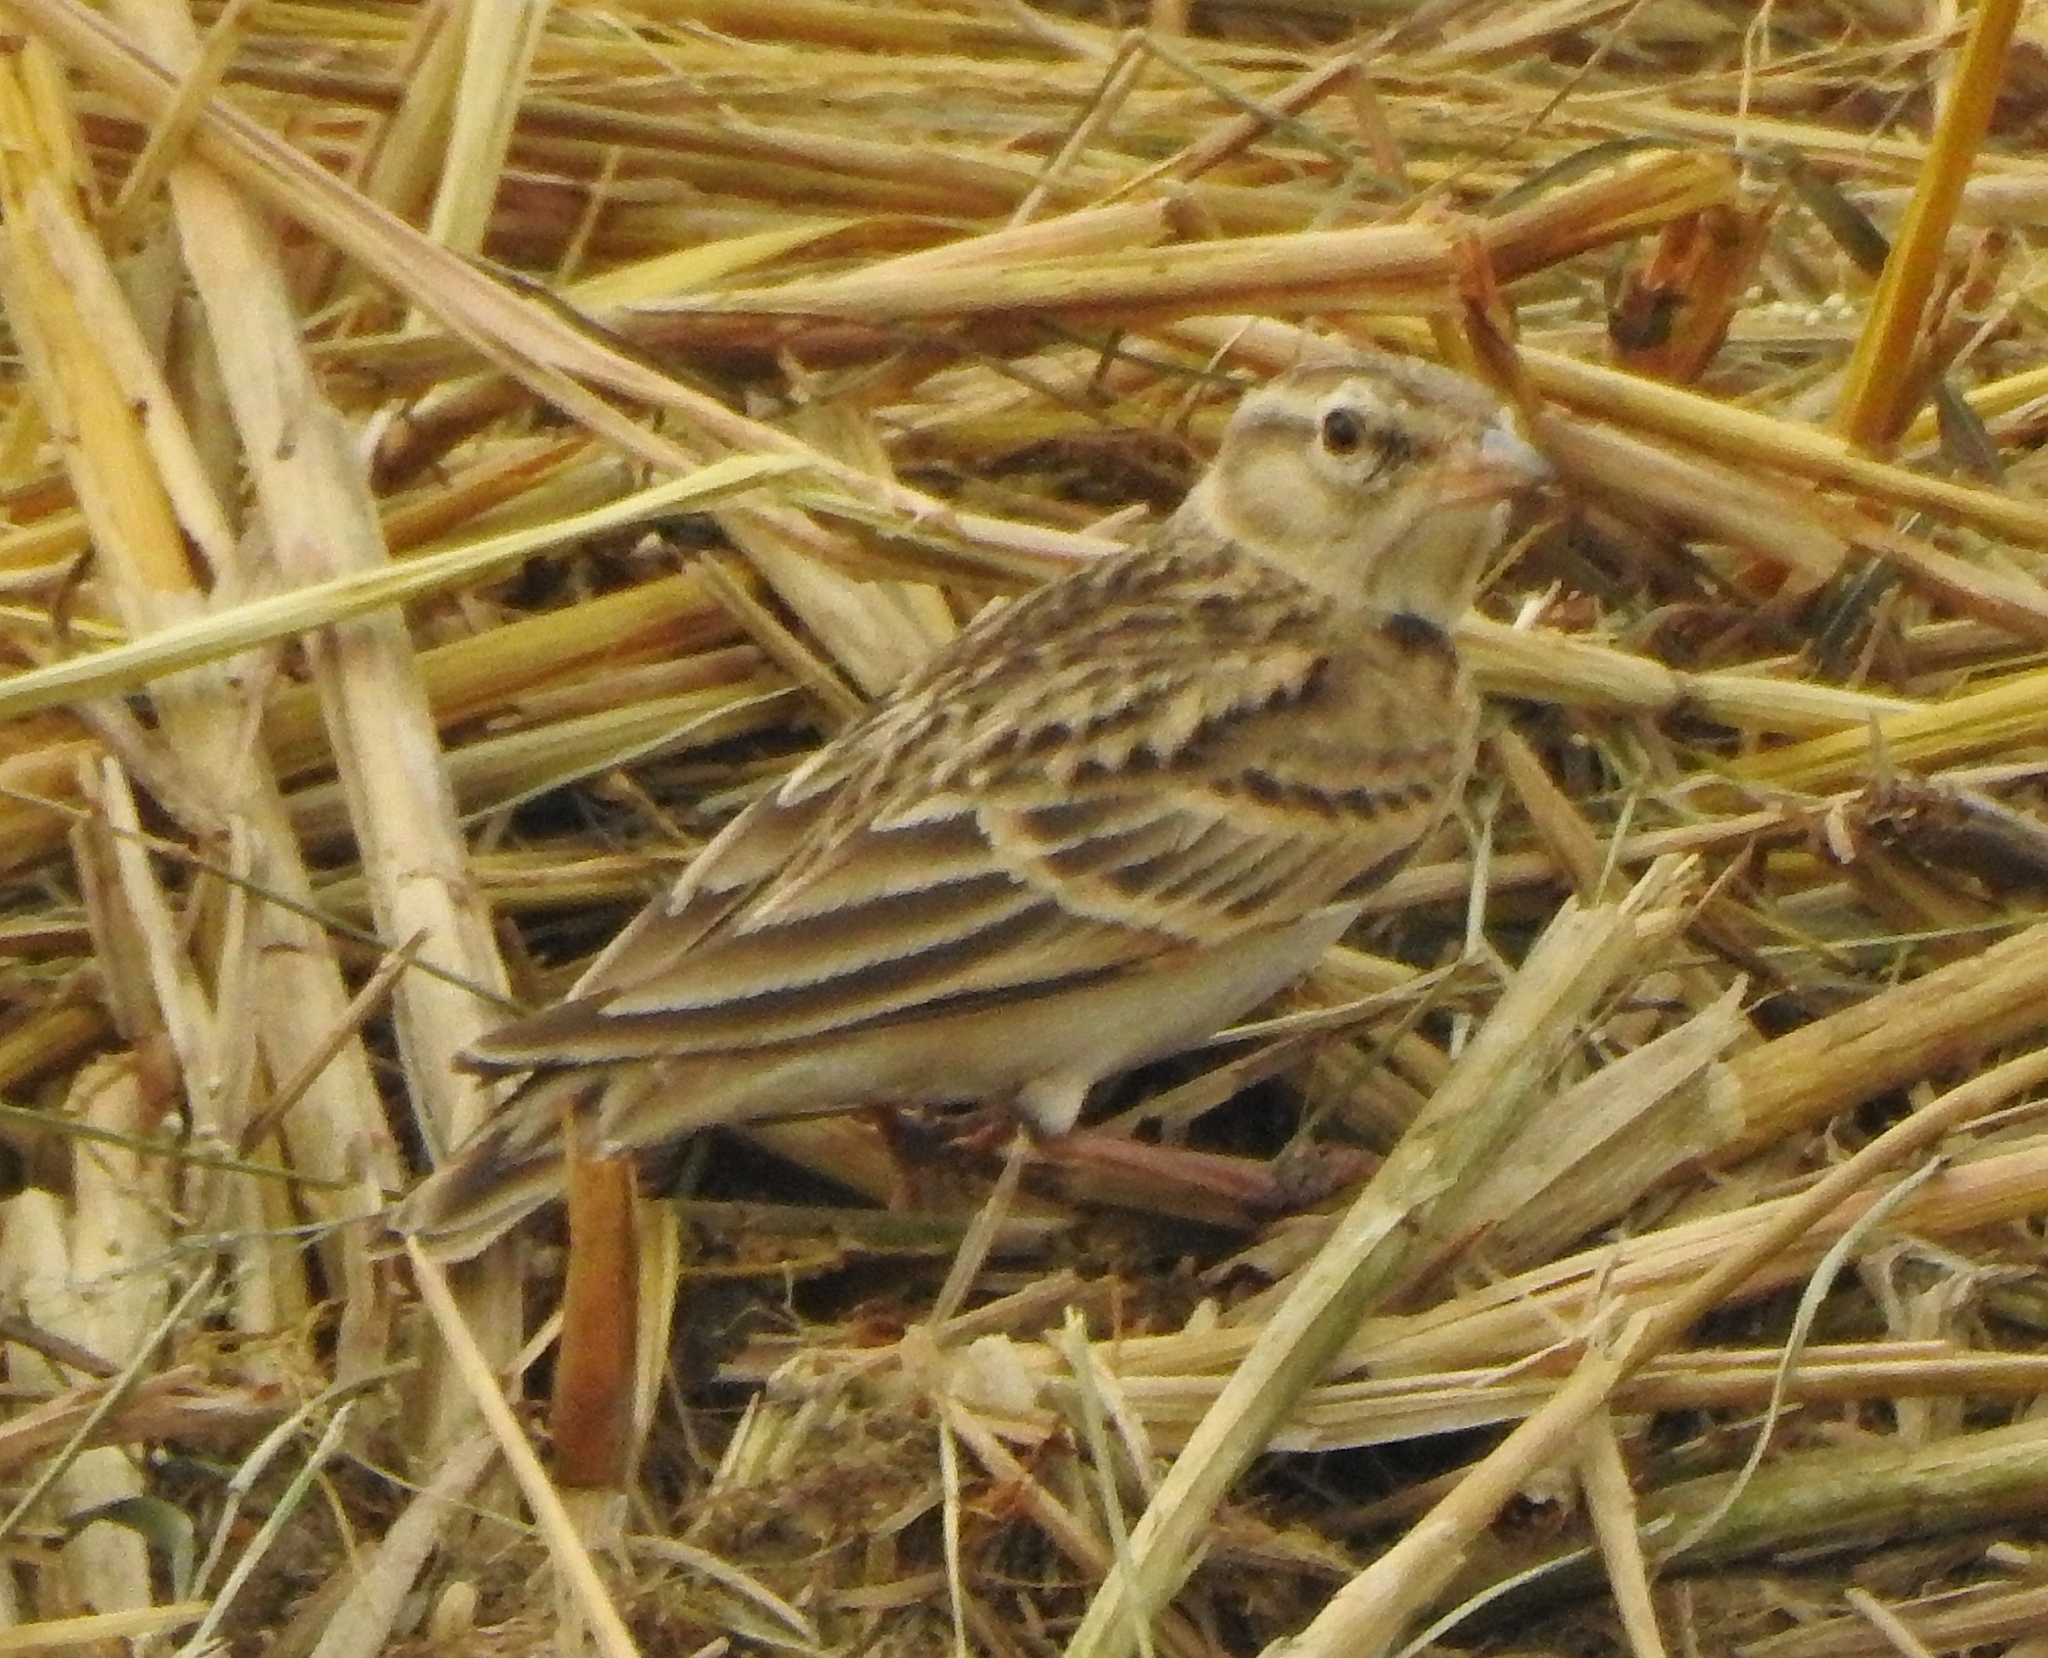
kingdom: Animalia
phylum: Chordata
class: Aves
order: Passeriformes
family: Alaudidae
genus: Calandrella
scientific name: Calandrella brachydactyla
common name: Greater short-toed lark
